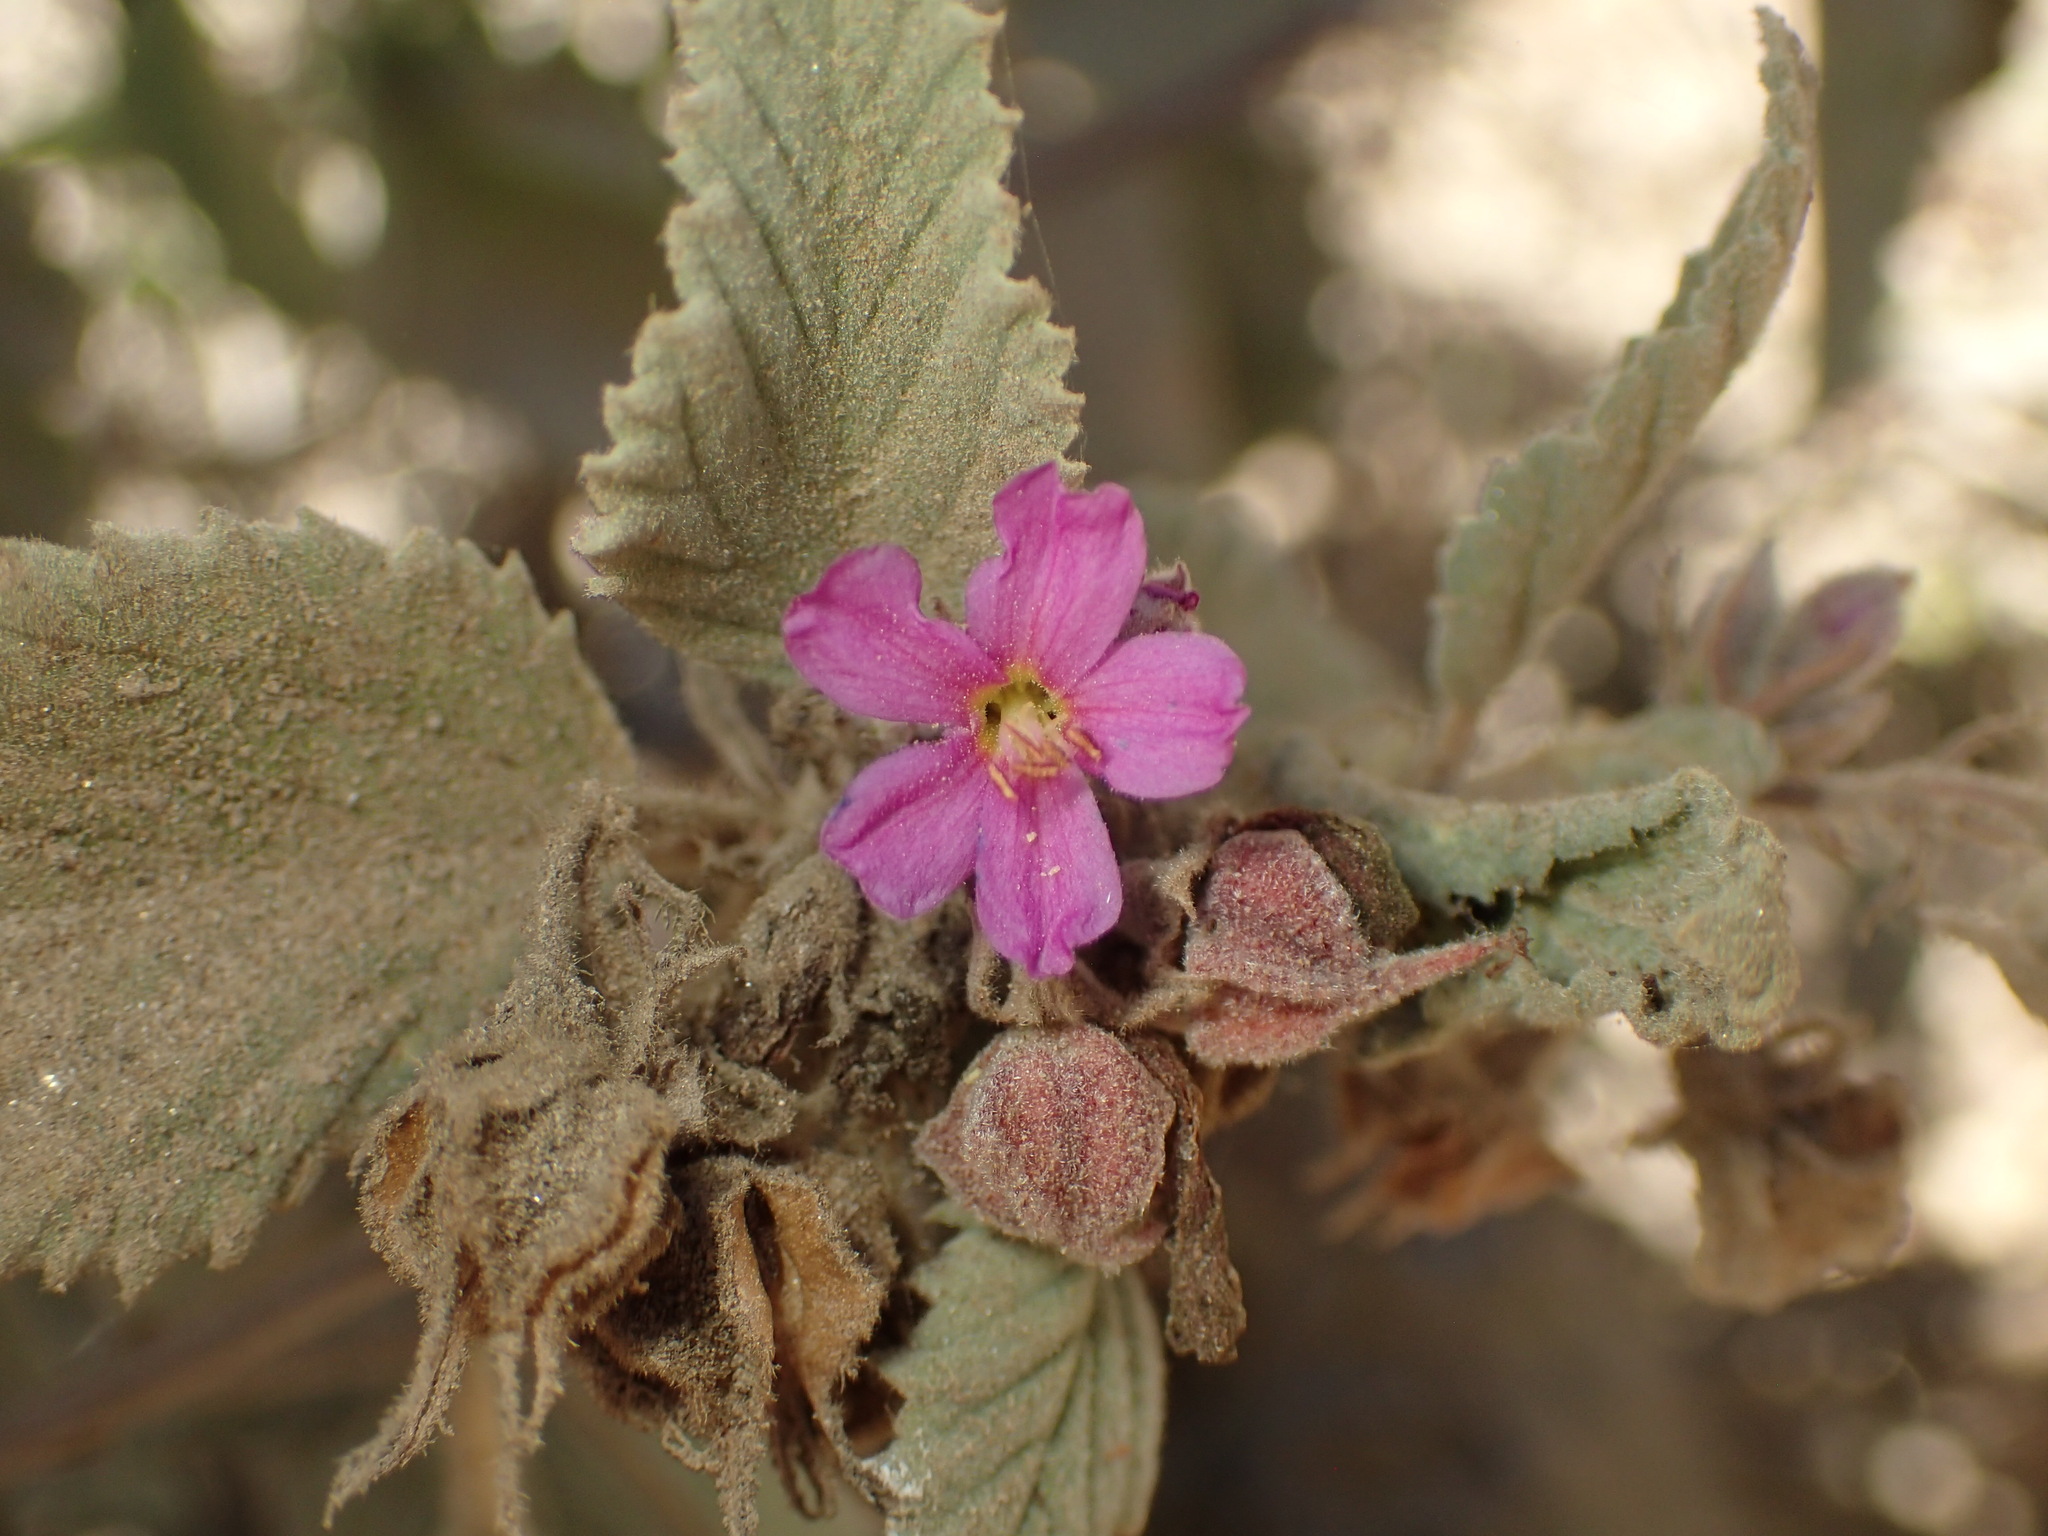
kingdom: Plantae
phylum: Tracheophyta
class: Magnoliopsida
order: Malvales
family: Malvaceae
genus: Melochia
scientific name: Melochia tomentosa
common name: Black torch
